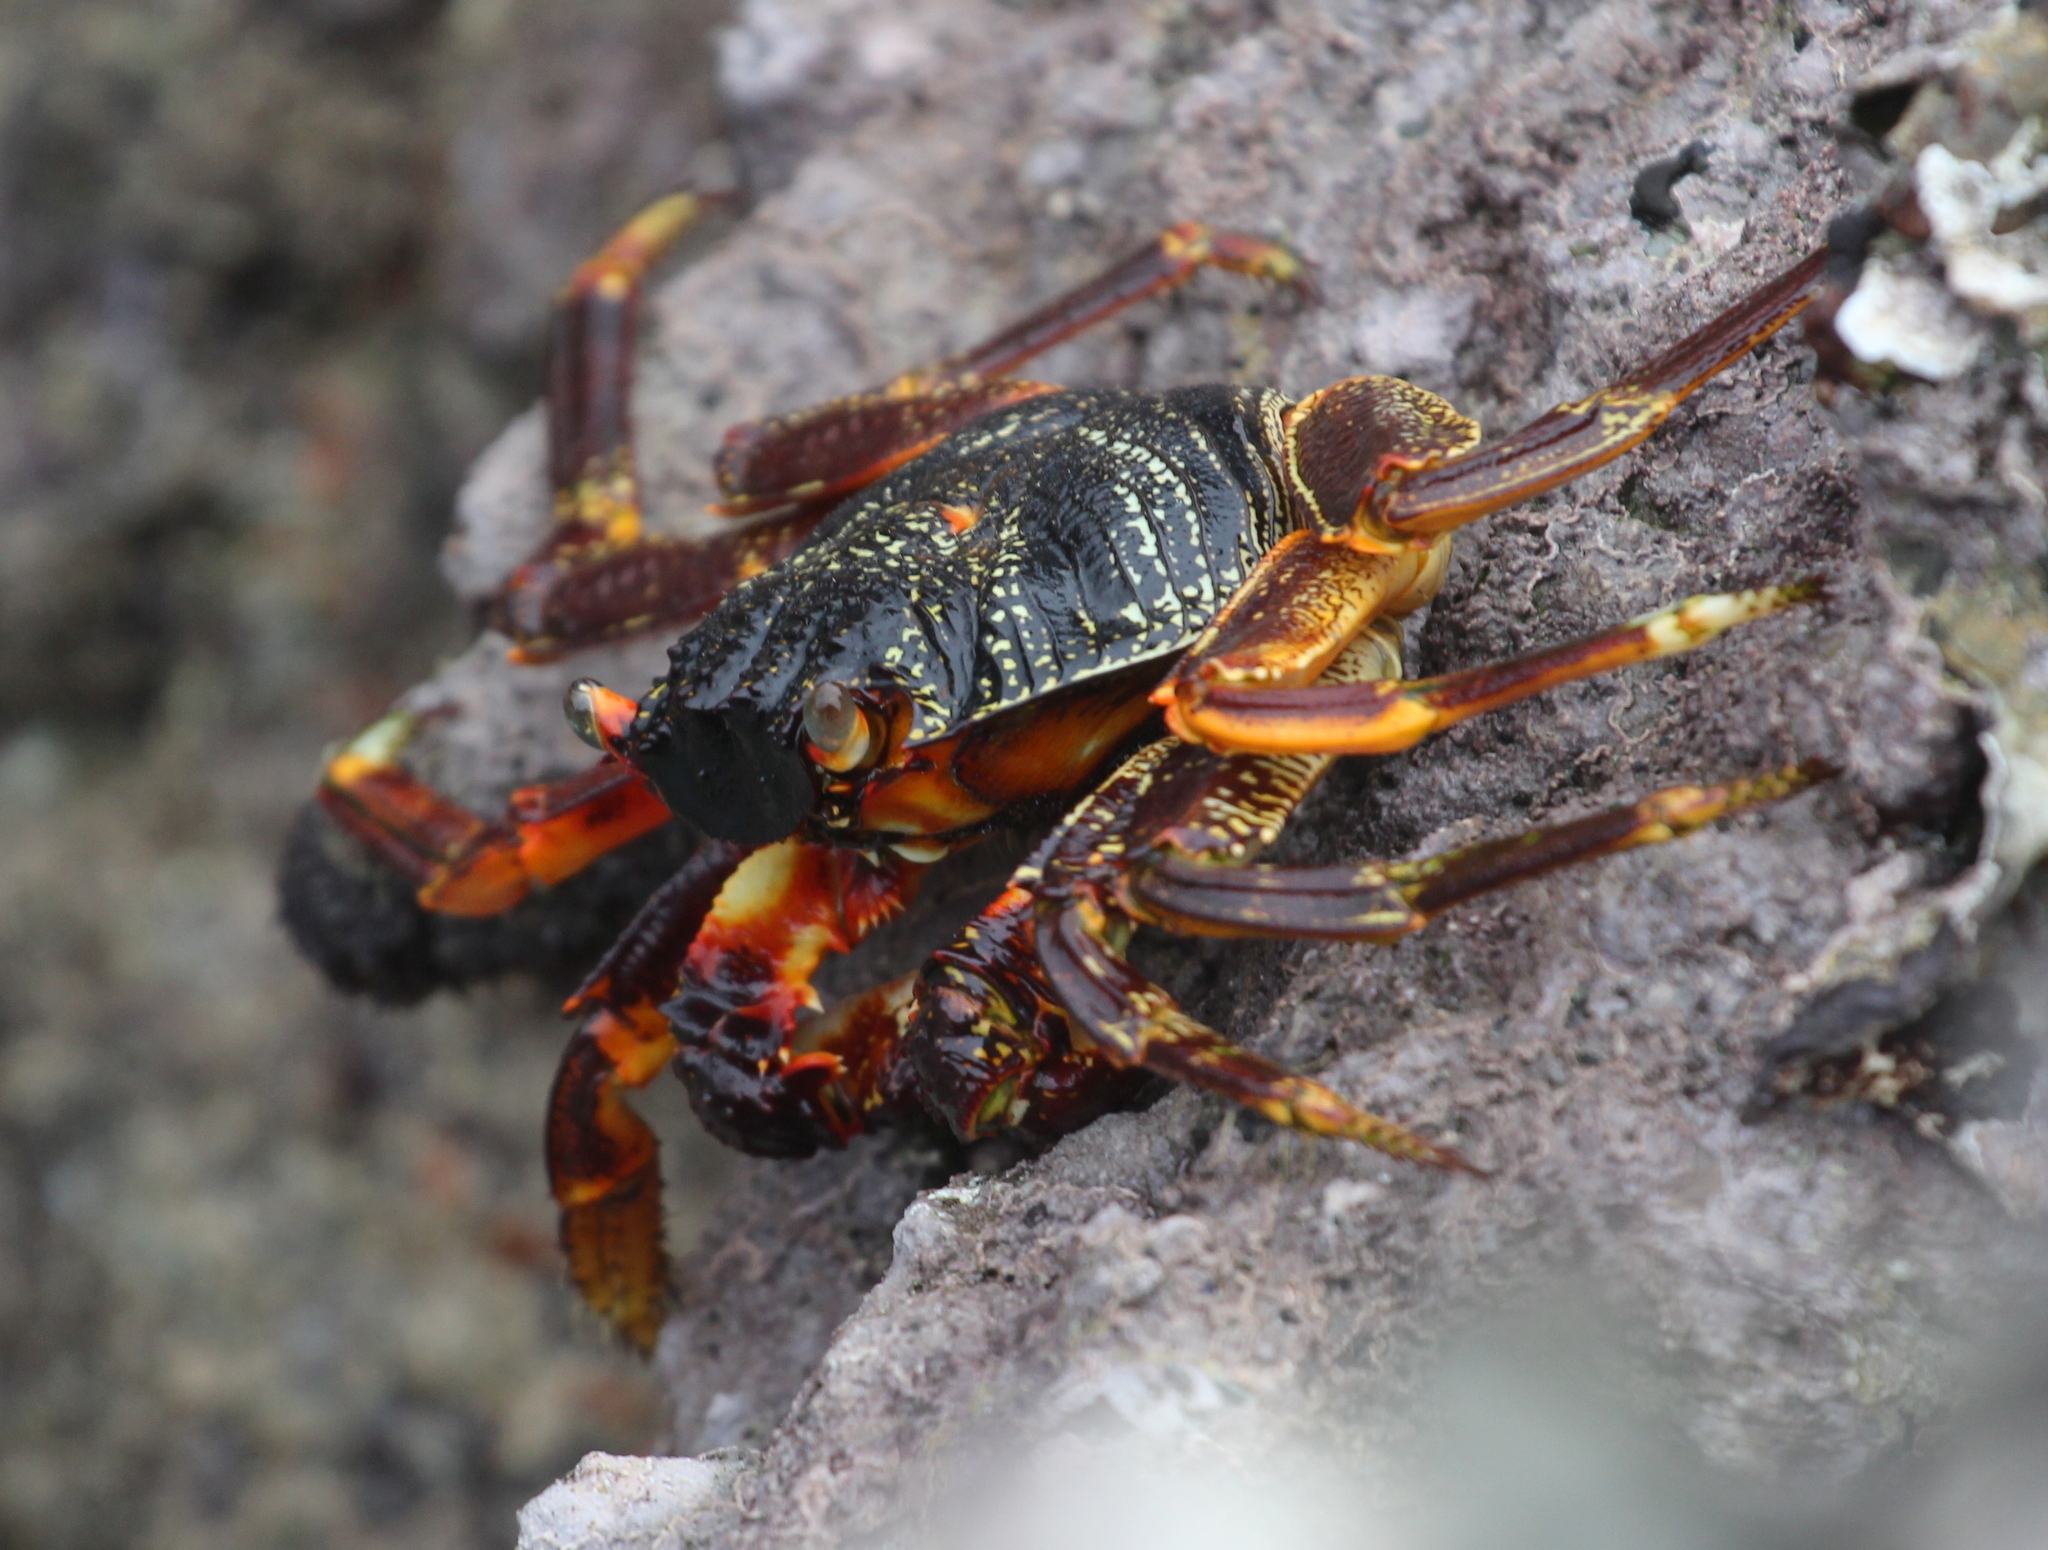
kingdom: Animalia
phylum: Arthropoda
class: Malacostraca
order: Decapoda
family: Grapsidae
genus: Grapsus
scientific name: Grapsus tenuicrustatus
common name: Natal lightfoot crab
